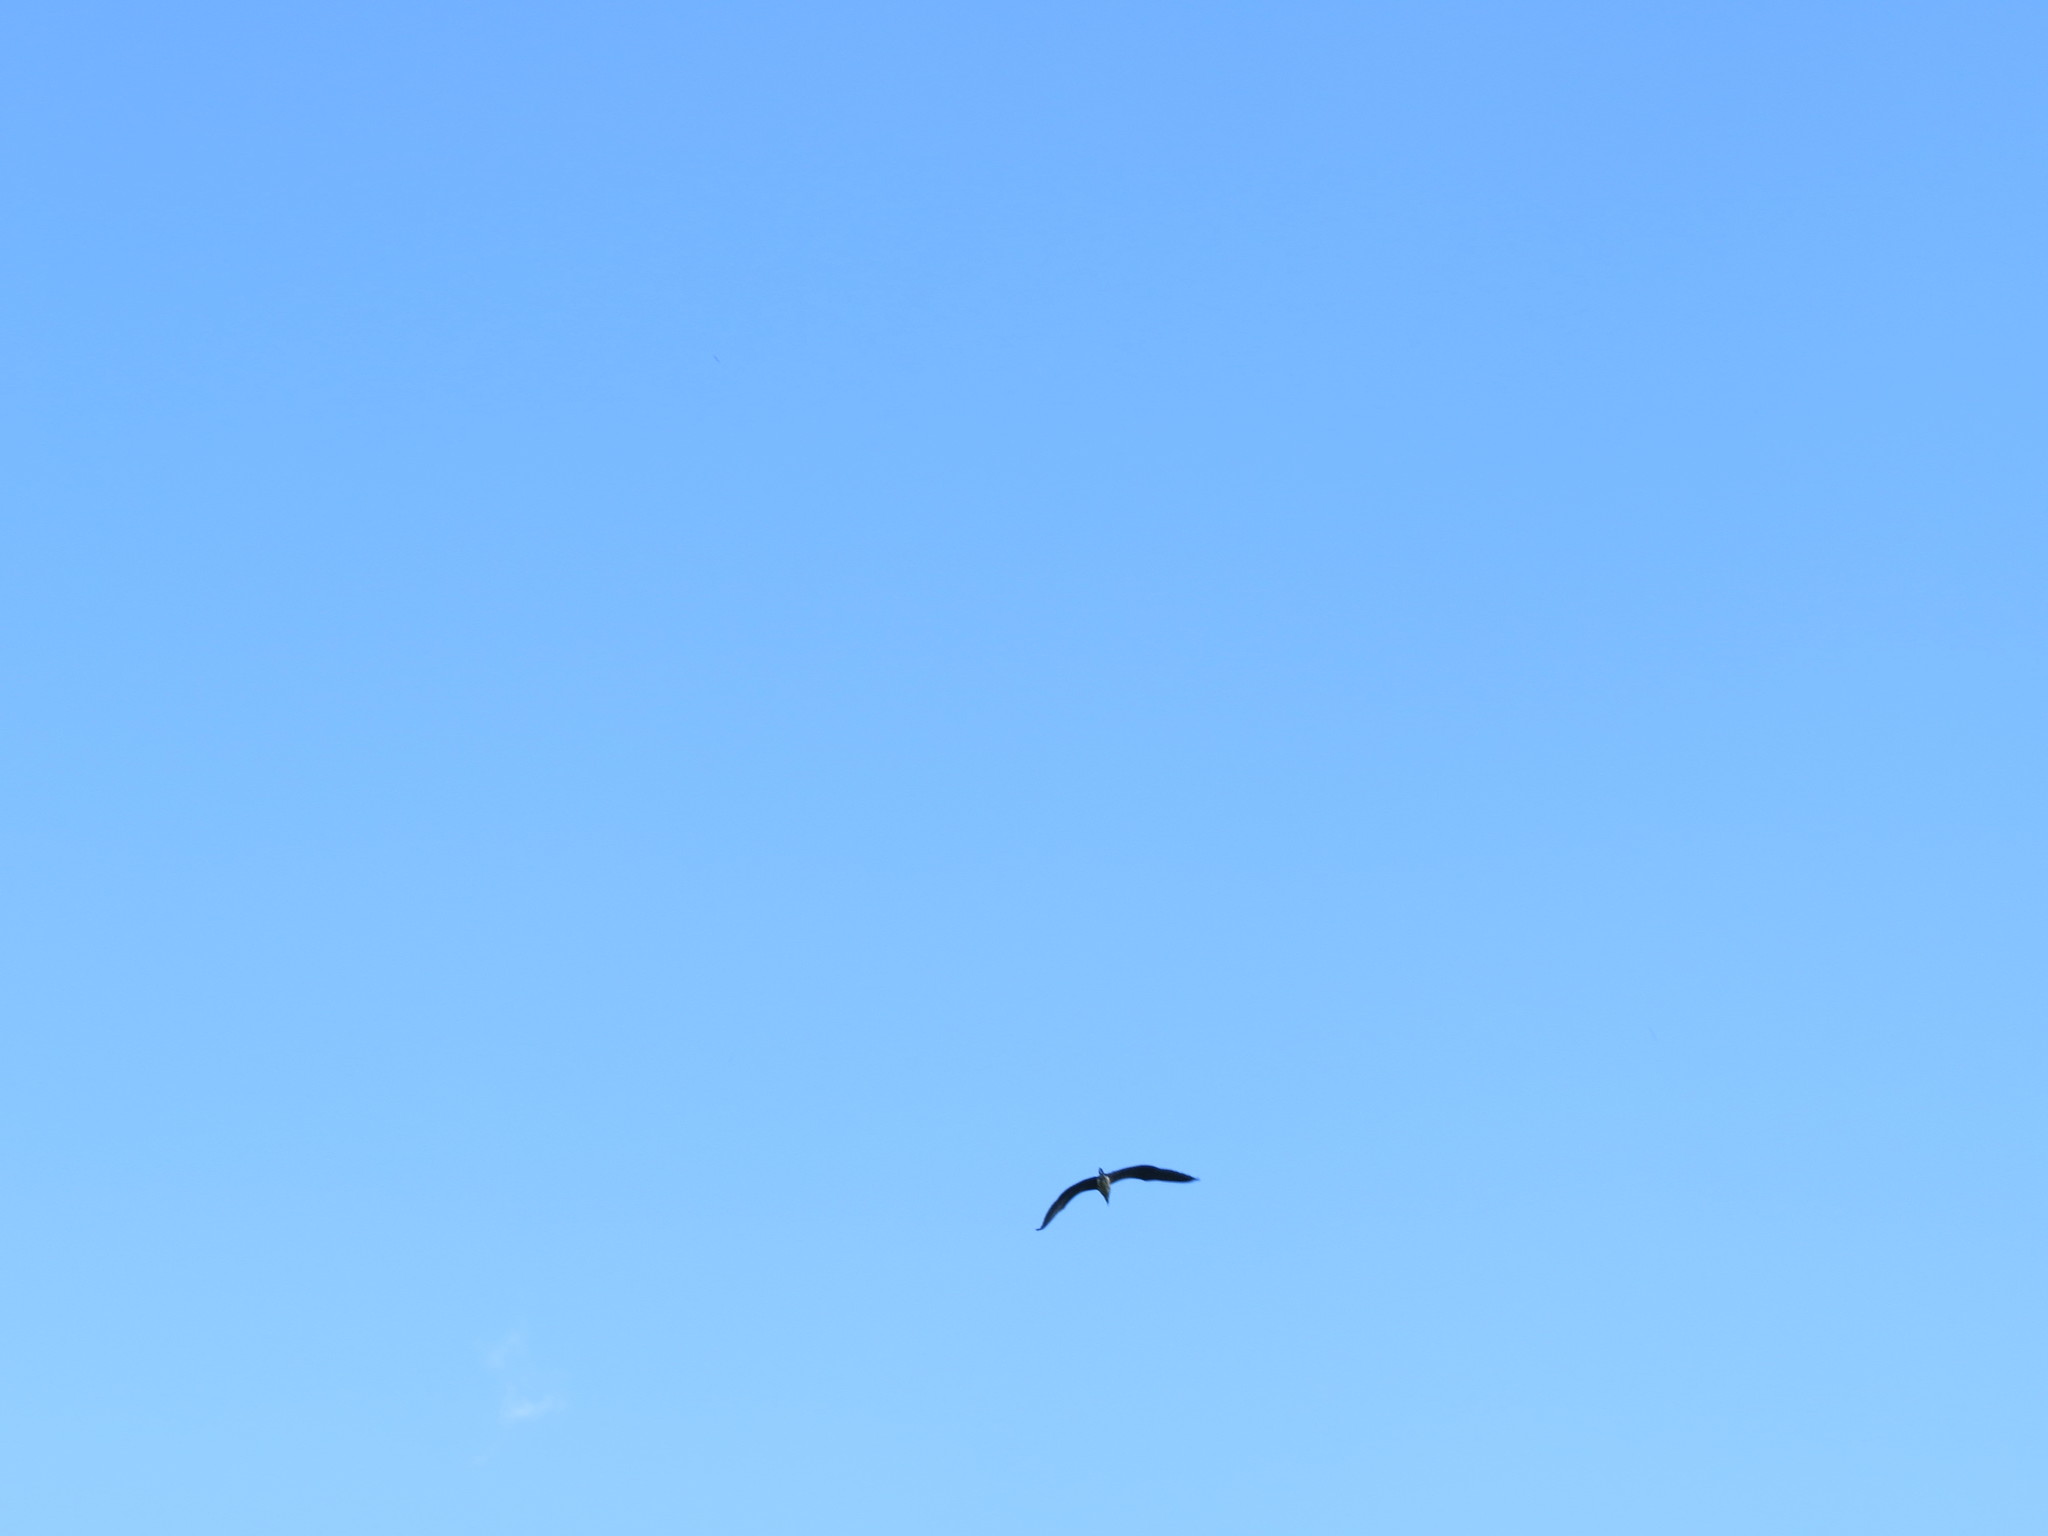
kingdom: Animalia
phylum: Chordata
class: Aves
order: Pelecaniformes
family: Ardeidae
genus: Ardea
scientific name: Ardea cinerea
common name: Grey heron
